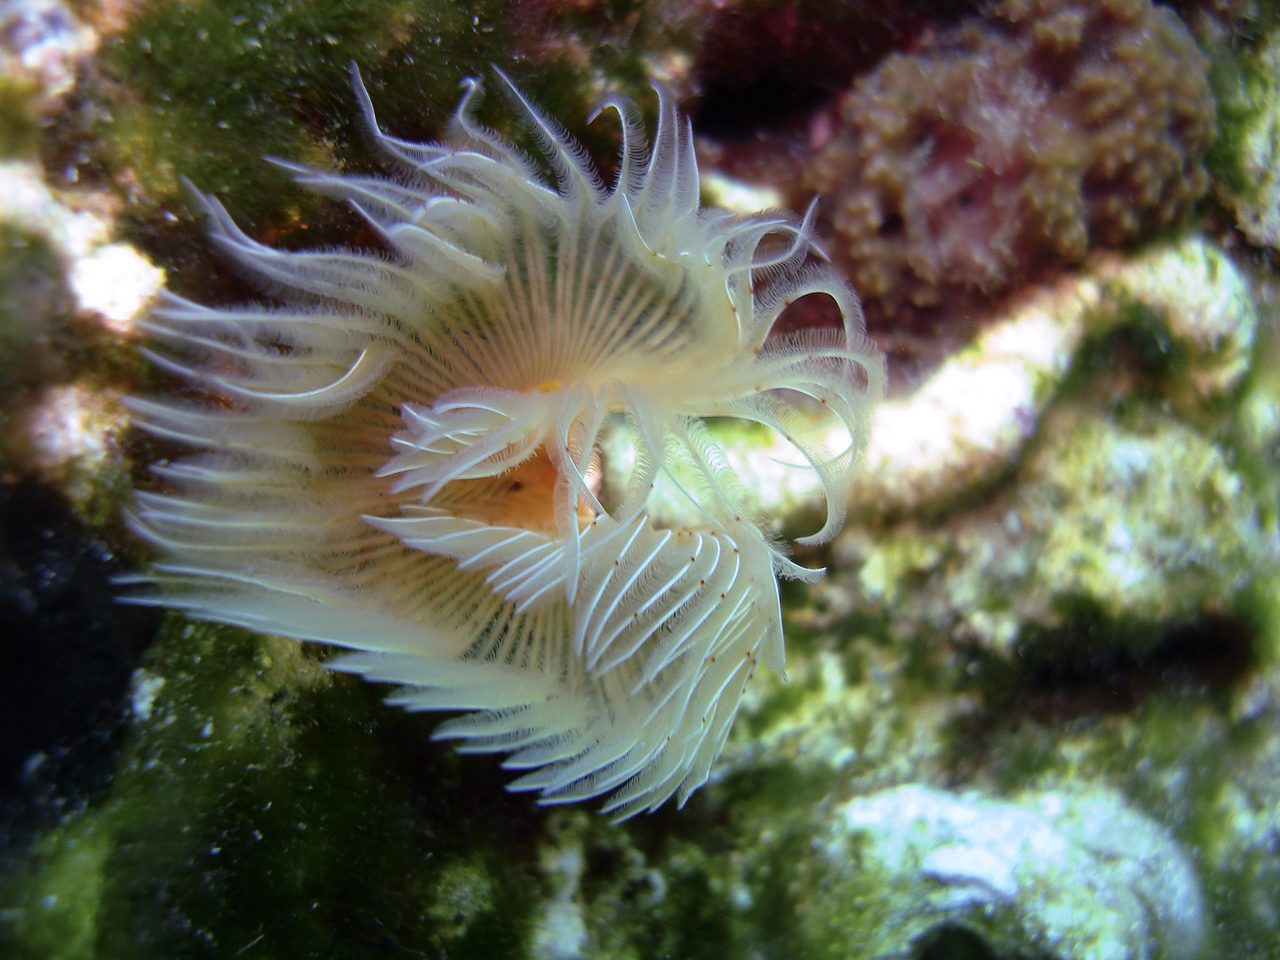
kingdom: Animalia
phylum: Annelida
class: Polychaeta
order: Sabellida
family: Serpulidae
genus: Protula
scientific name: Protula tubularia
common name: Red-spotted horseshoe
